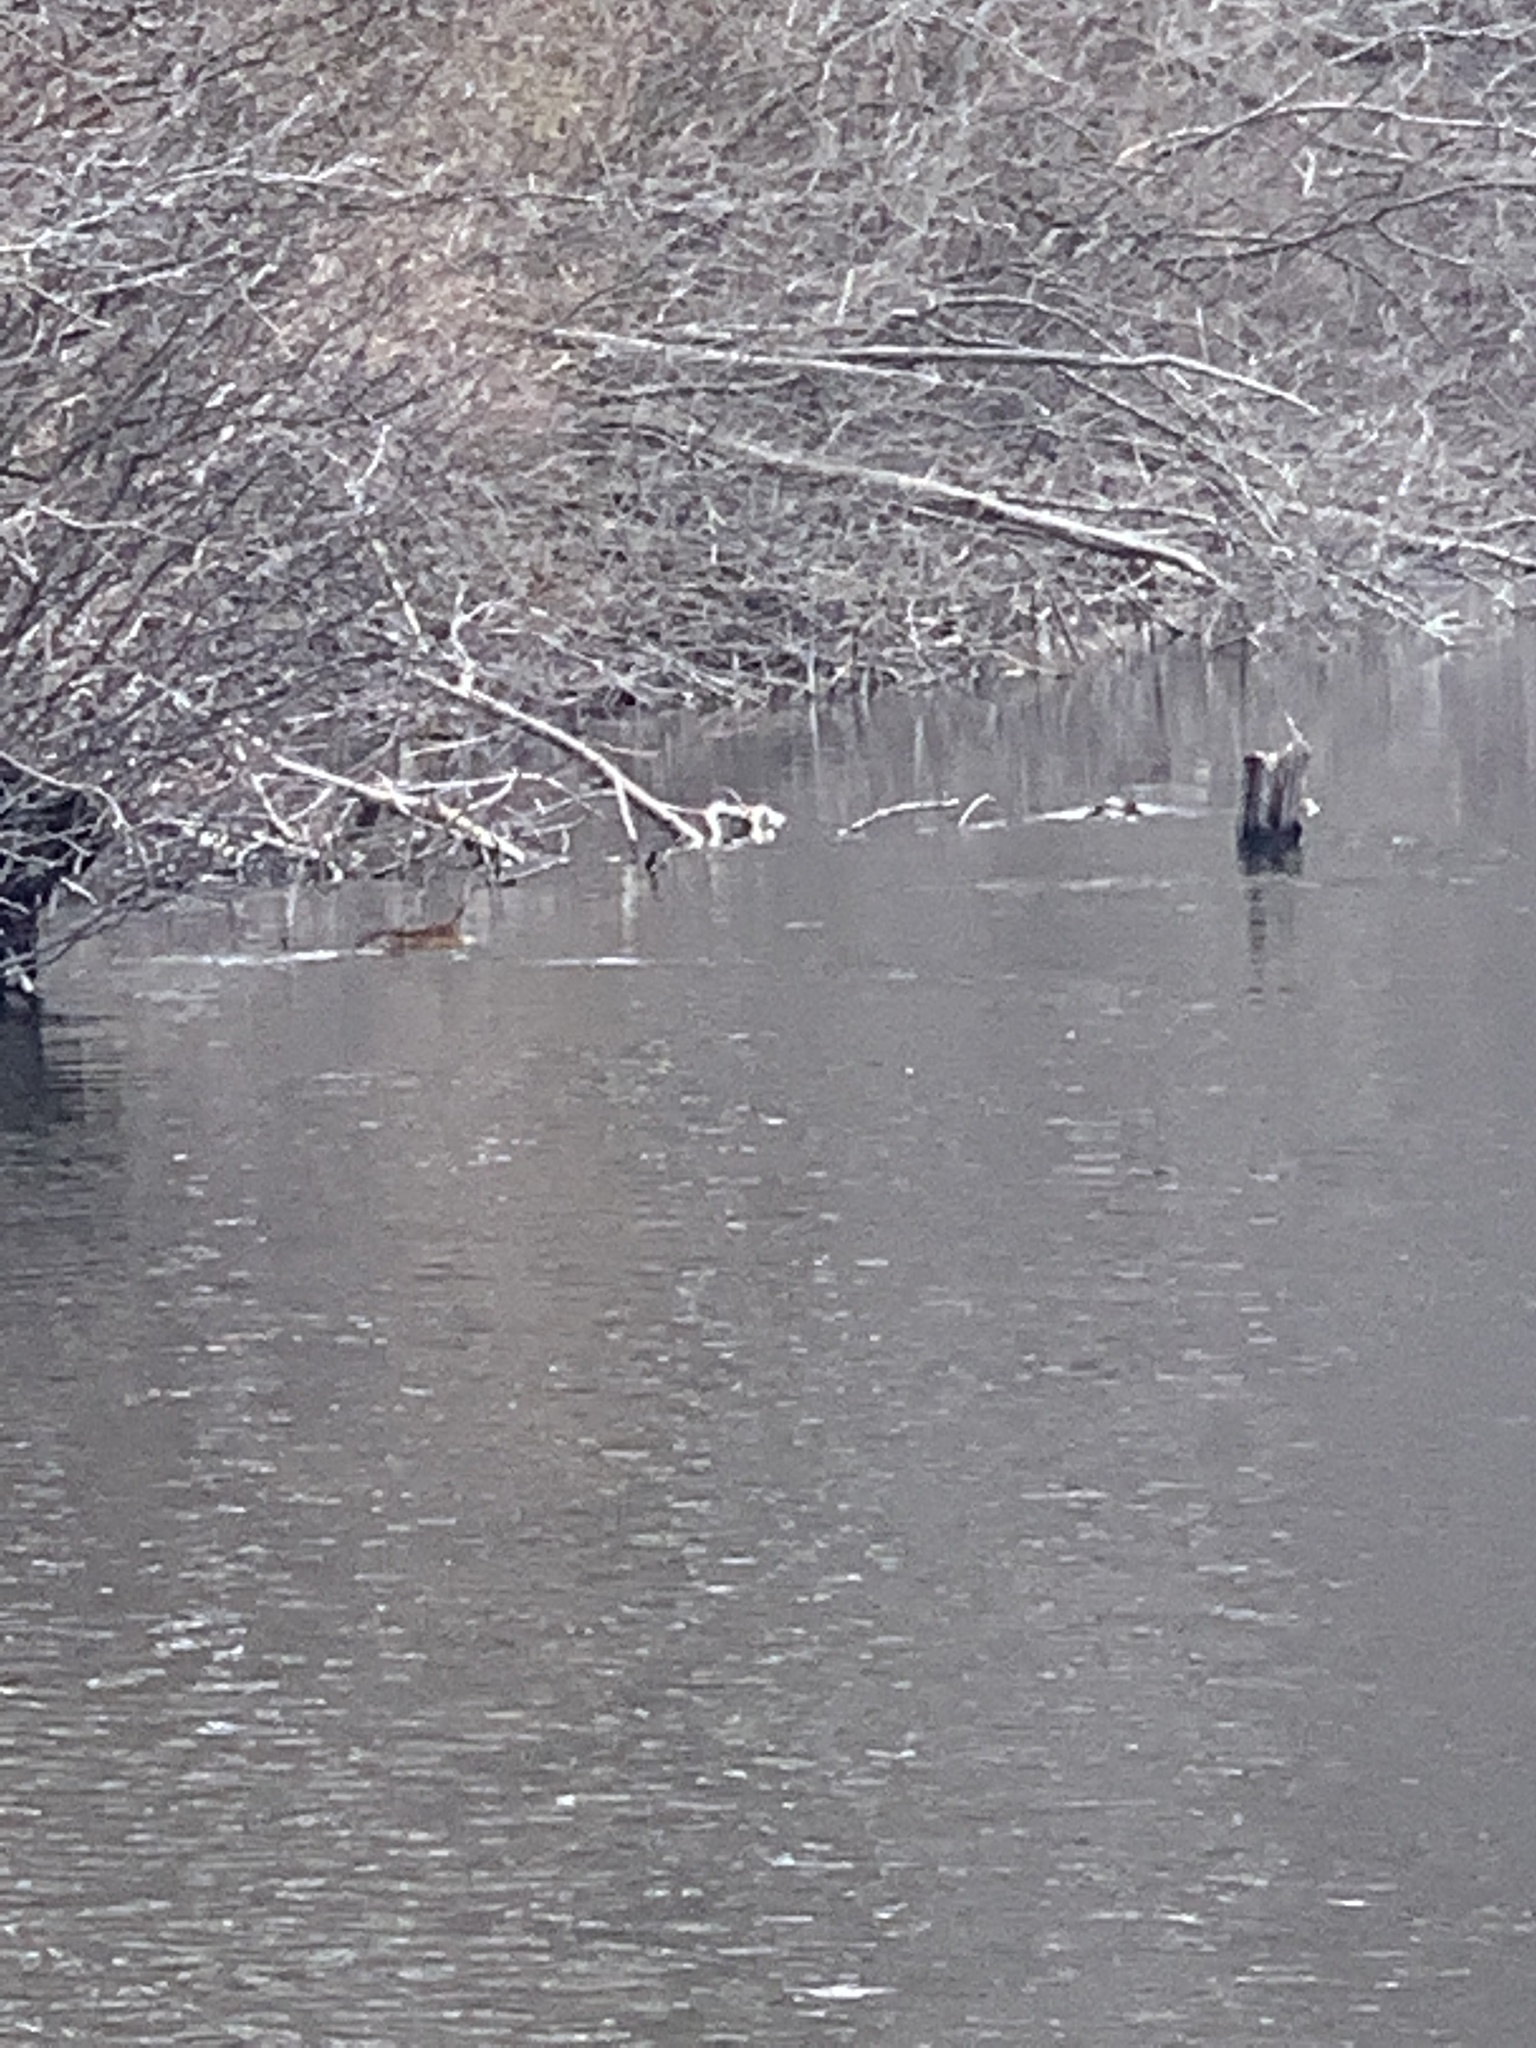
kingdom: Animalia
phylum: Chordata
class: Mammalia
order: Rodentia
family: Cricetidae
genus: Ondatra
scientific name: Ondatra zibethicus
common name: Muskrat
